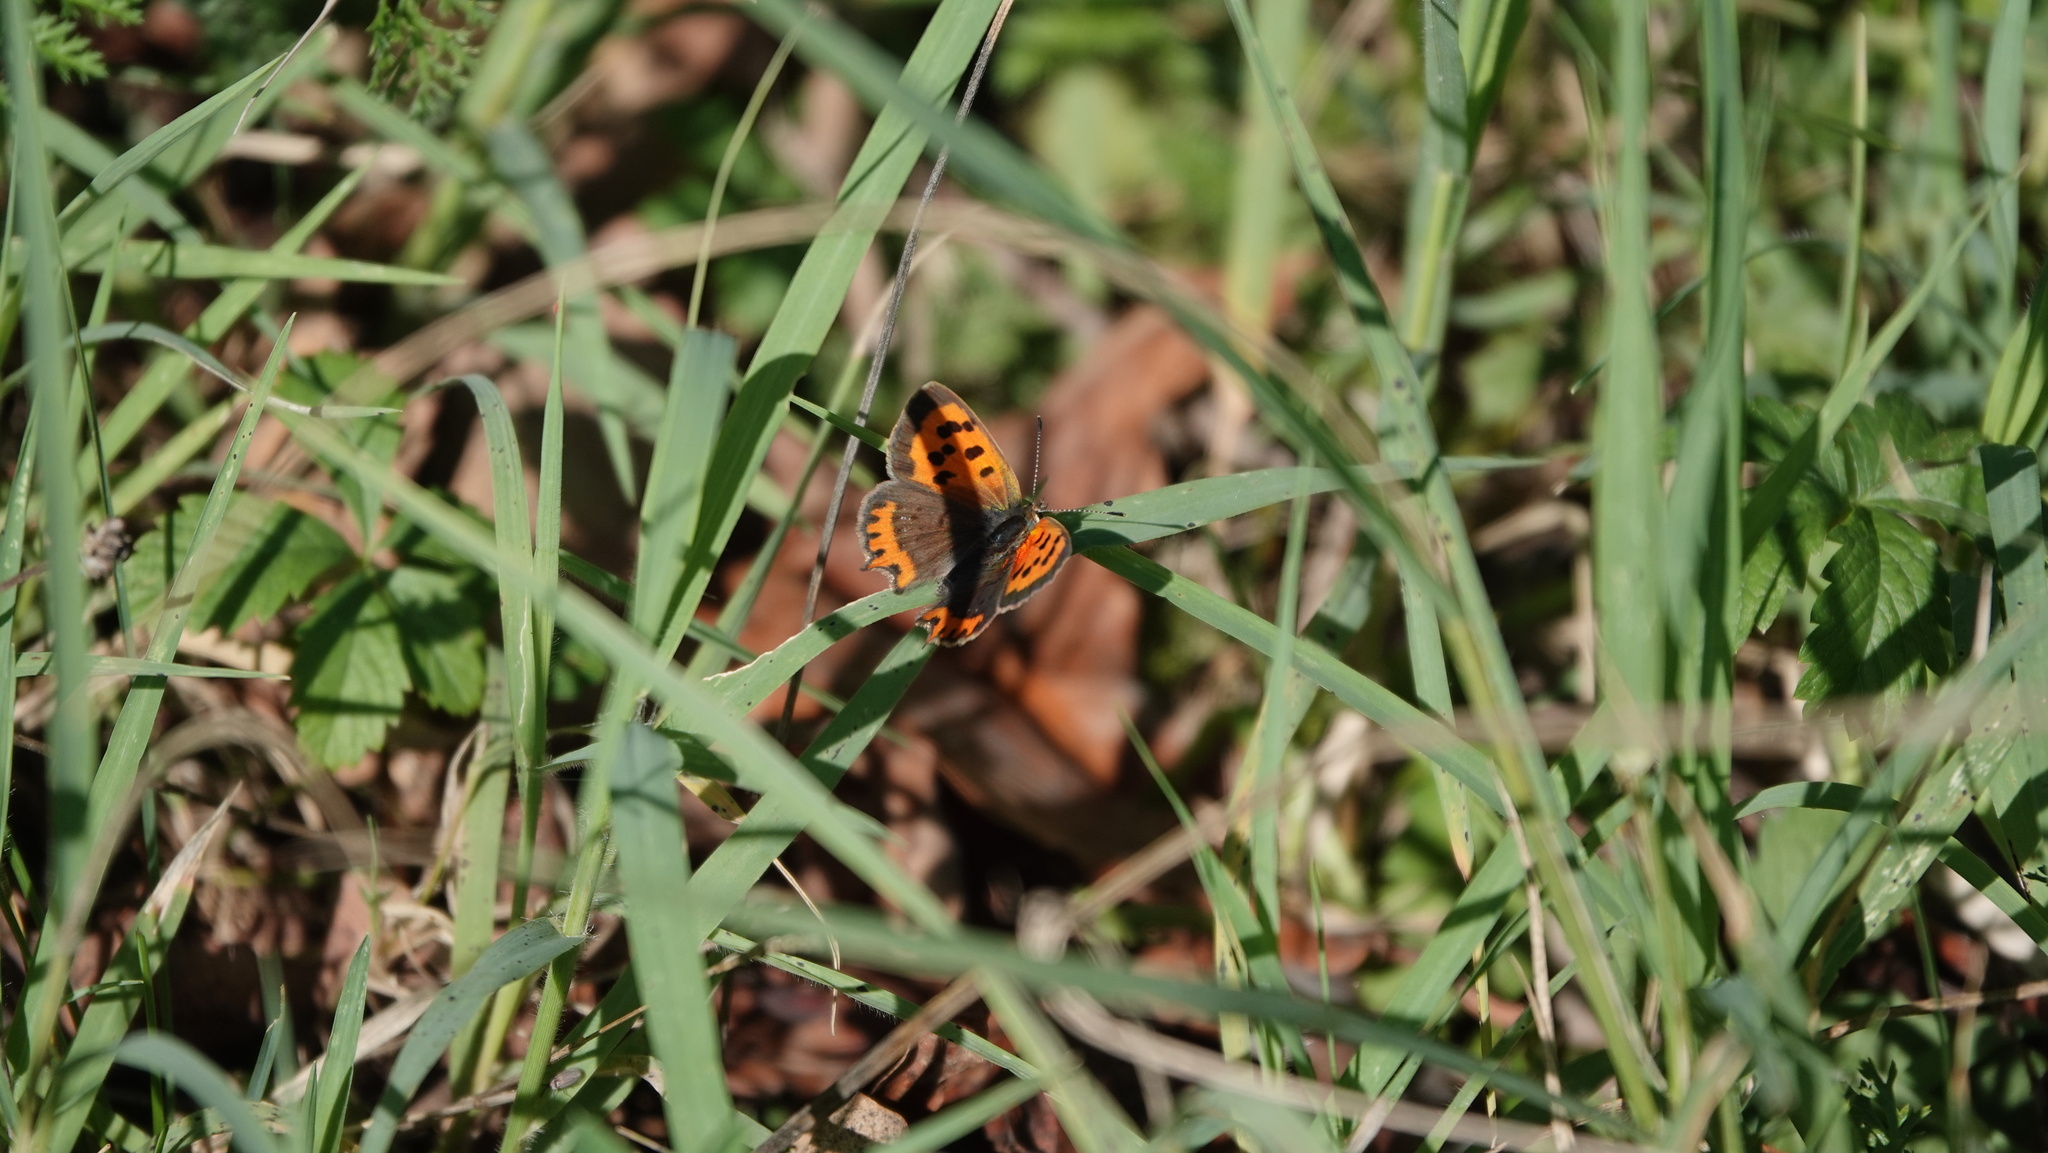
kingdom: Animalia
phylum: Arthropoda
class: Insecta
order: Lepidoptera
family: Lycaenidae
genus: Lycaena
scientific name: Lycaena phlaeas
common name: Small copper
